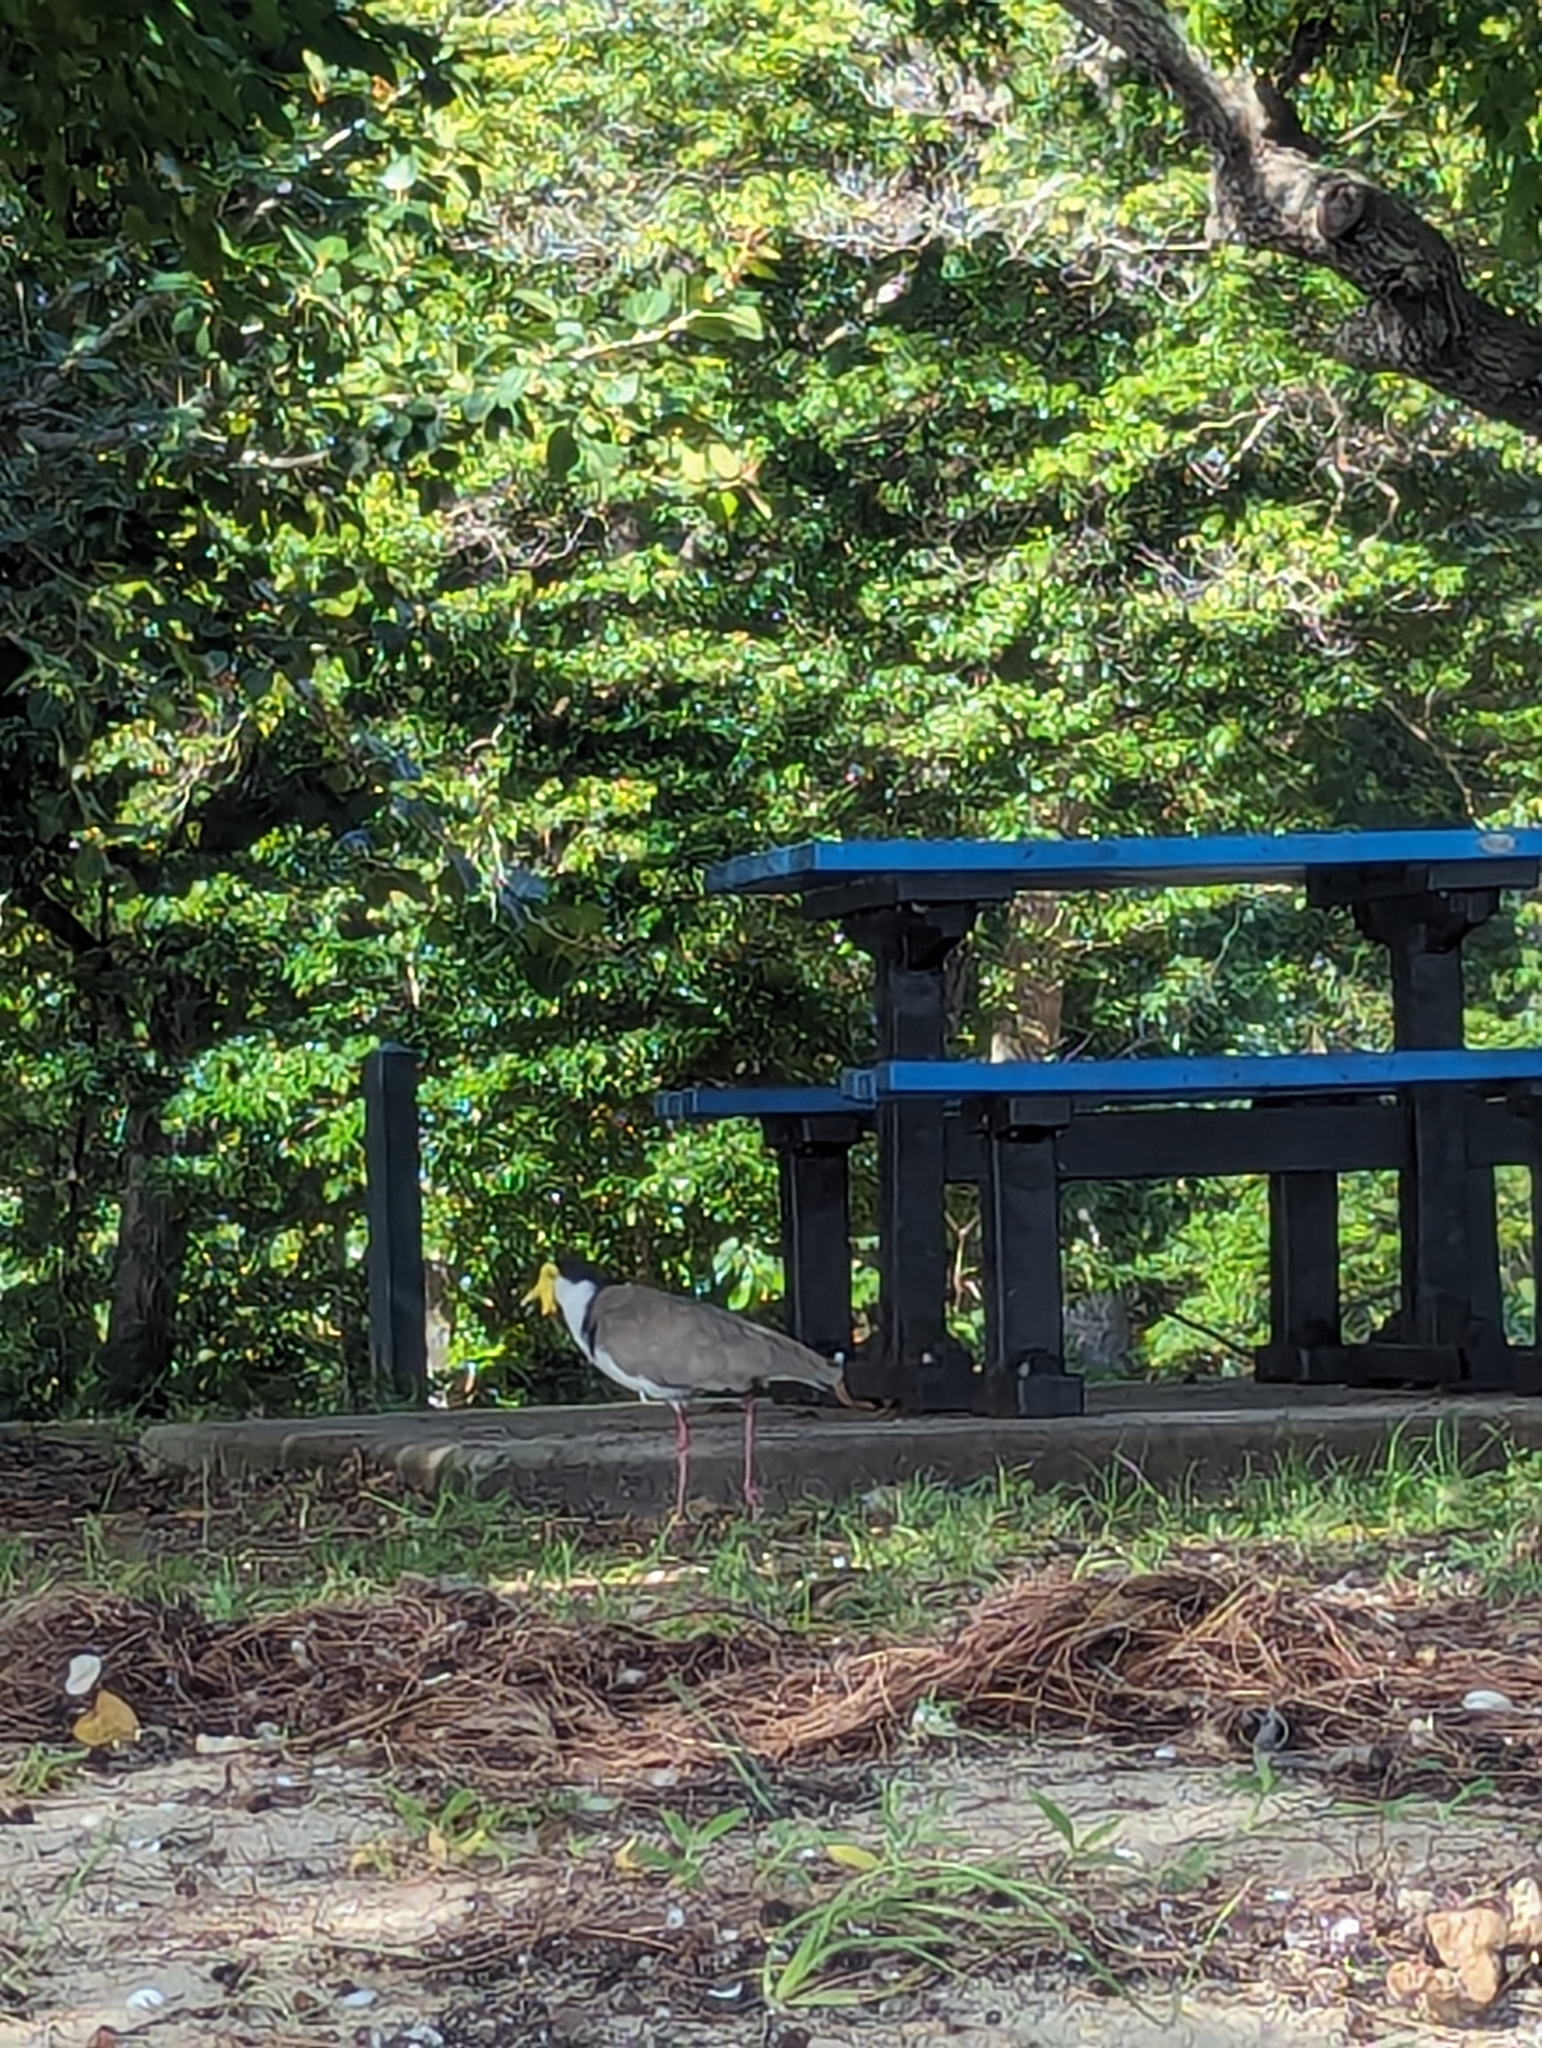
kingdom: Animalia
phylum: Chordata
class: Aves
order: Charadriiformes
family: Charadriidae
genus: Vanellus
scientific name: Vanellus miles
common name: Masked lapwing
